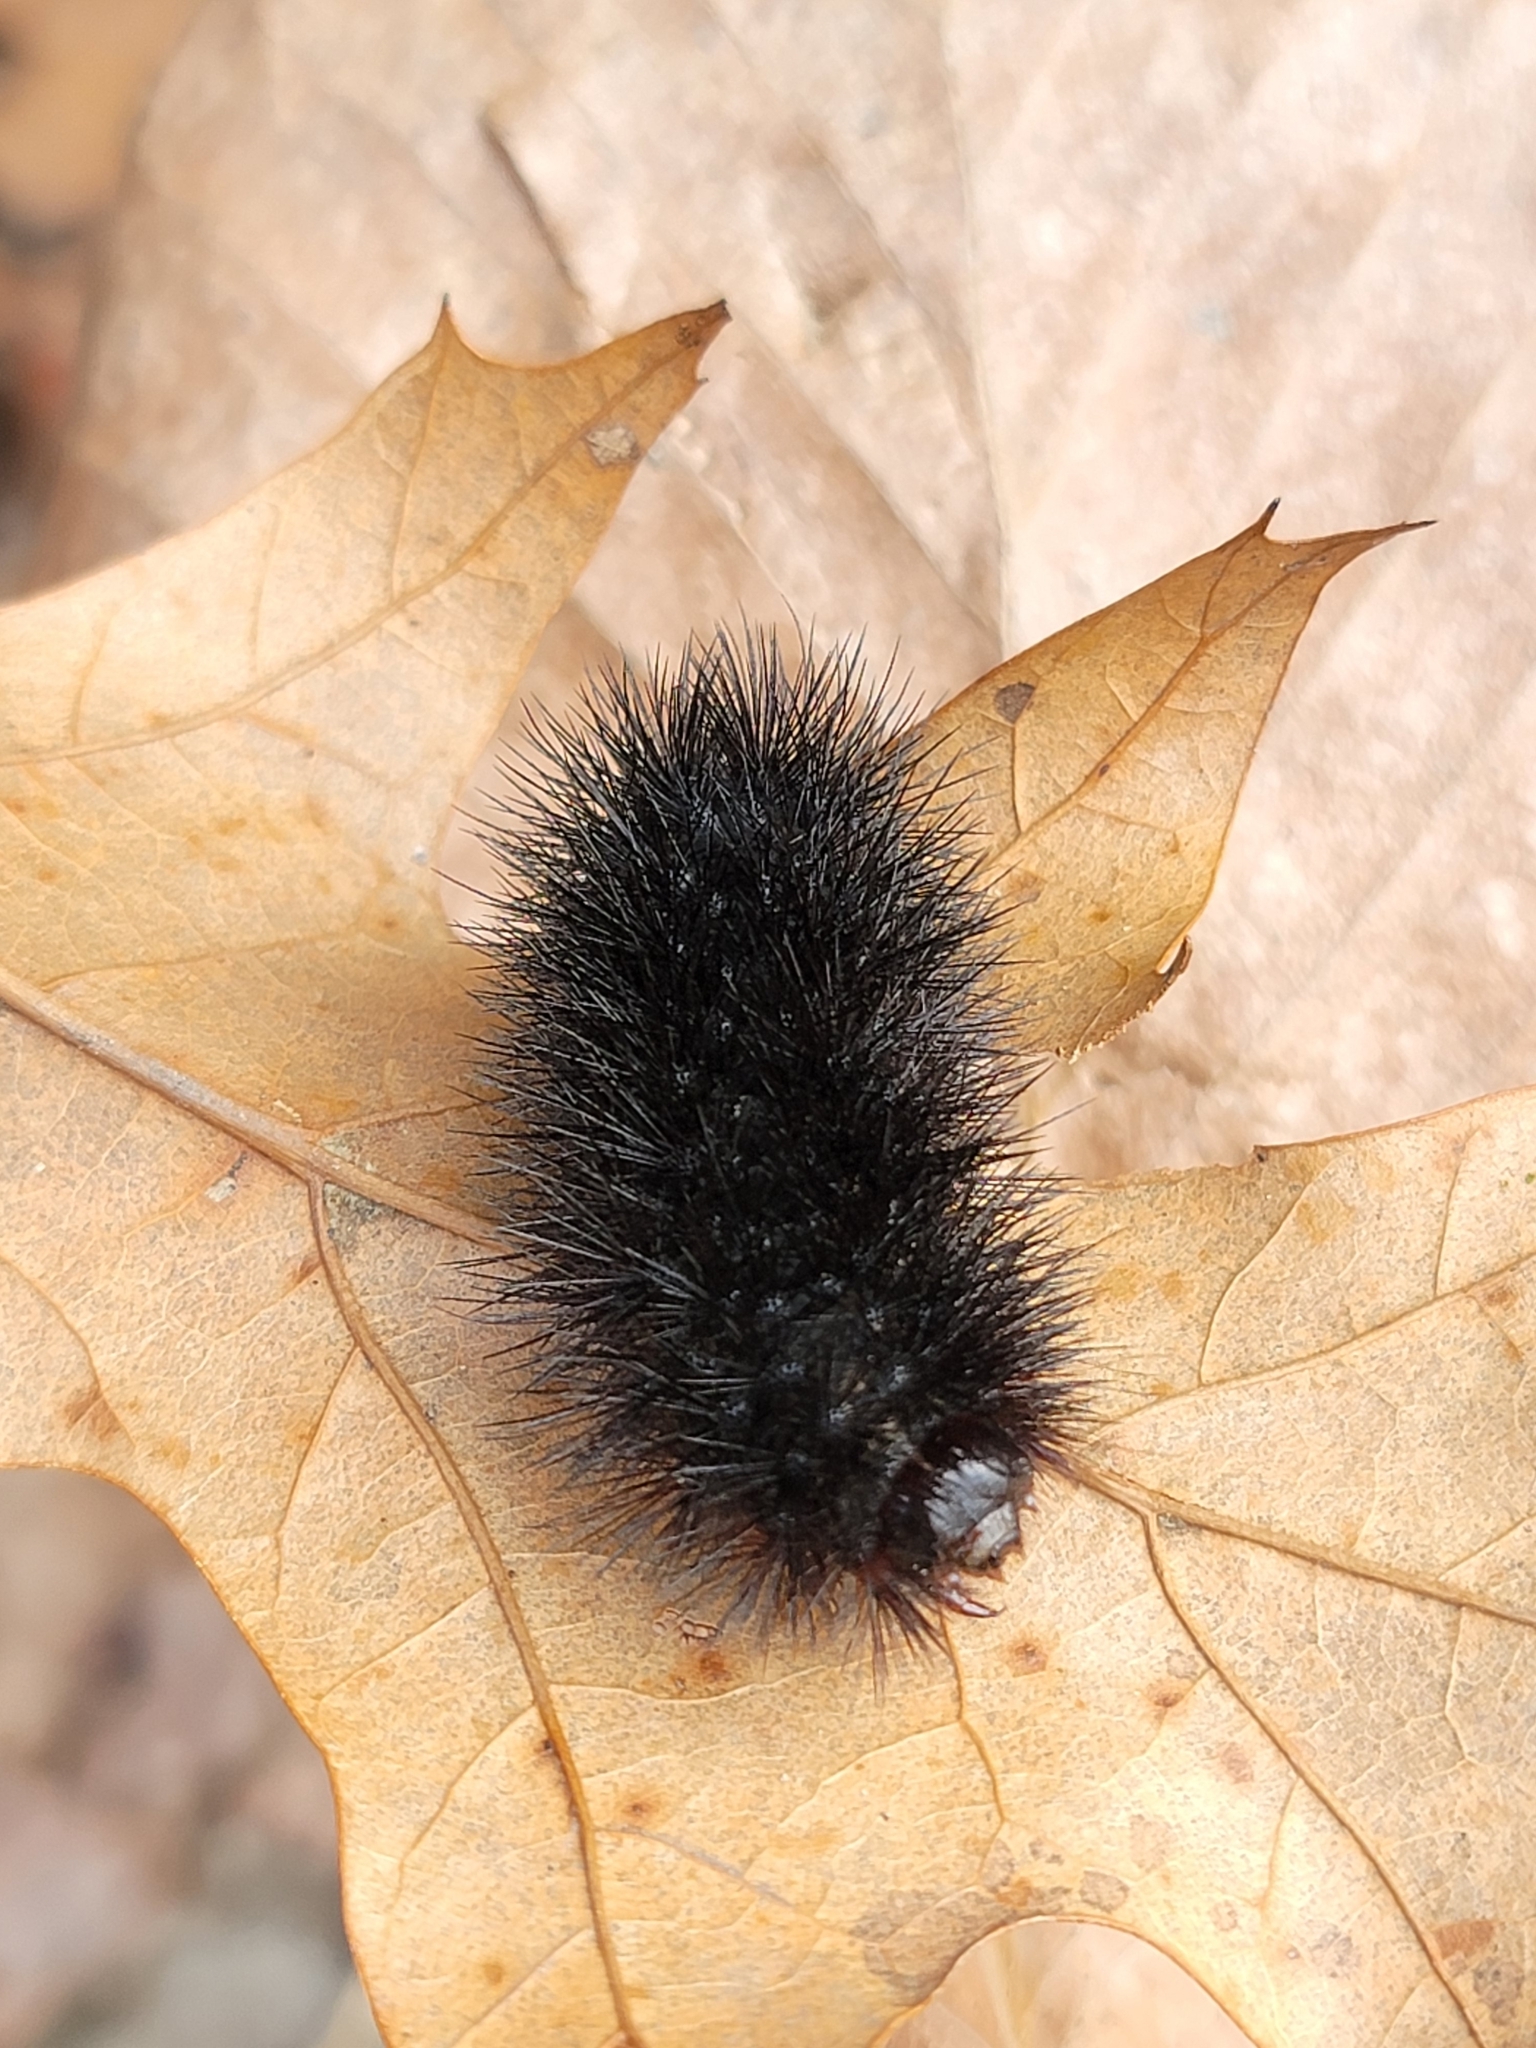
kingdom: Animalia
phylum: Arthropoda
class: Insecta
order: Lepidoptera
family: Erebidae
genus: Hypercompe
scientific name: Hypercompe scribonia
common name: Giant leopard moth
